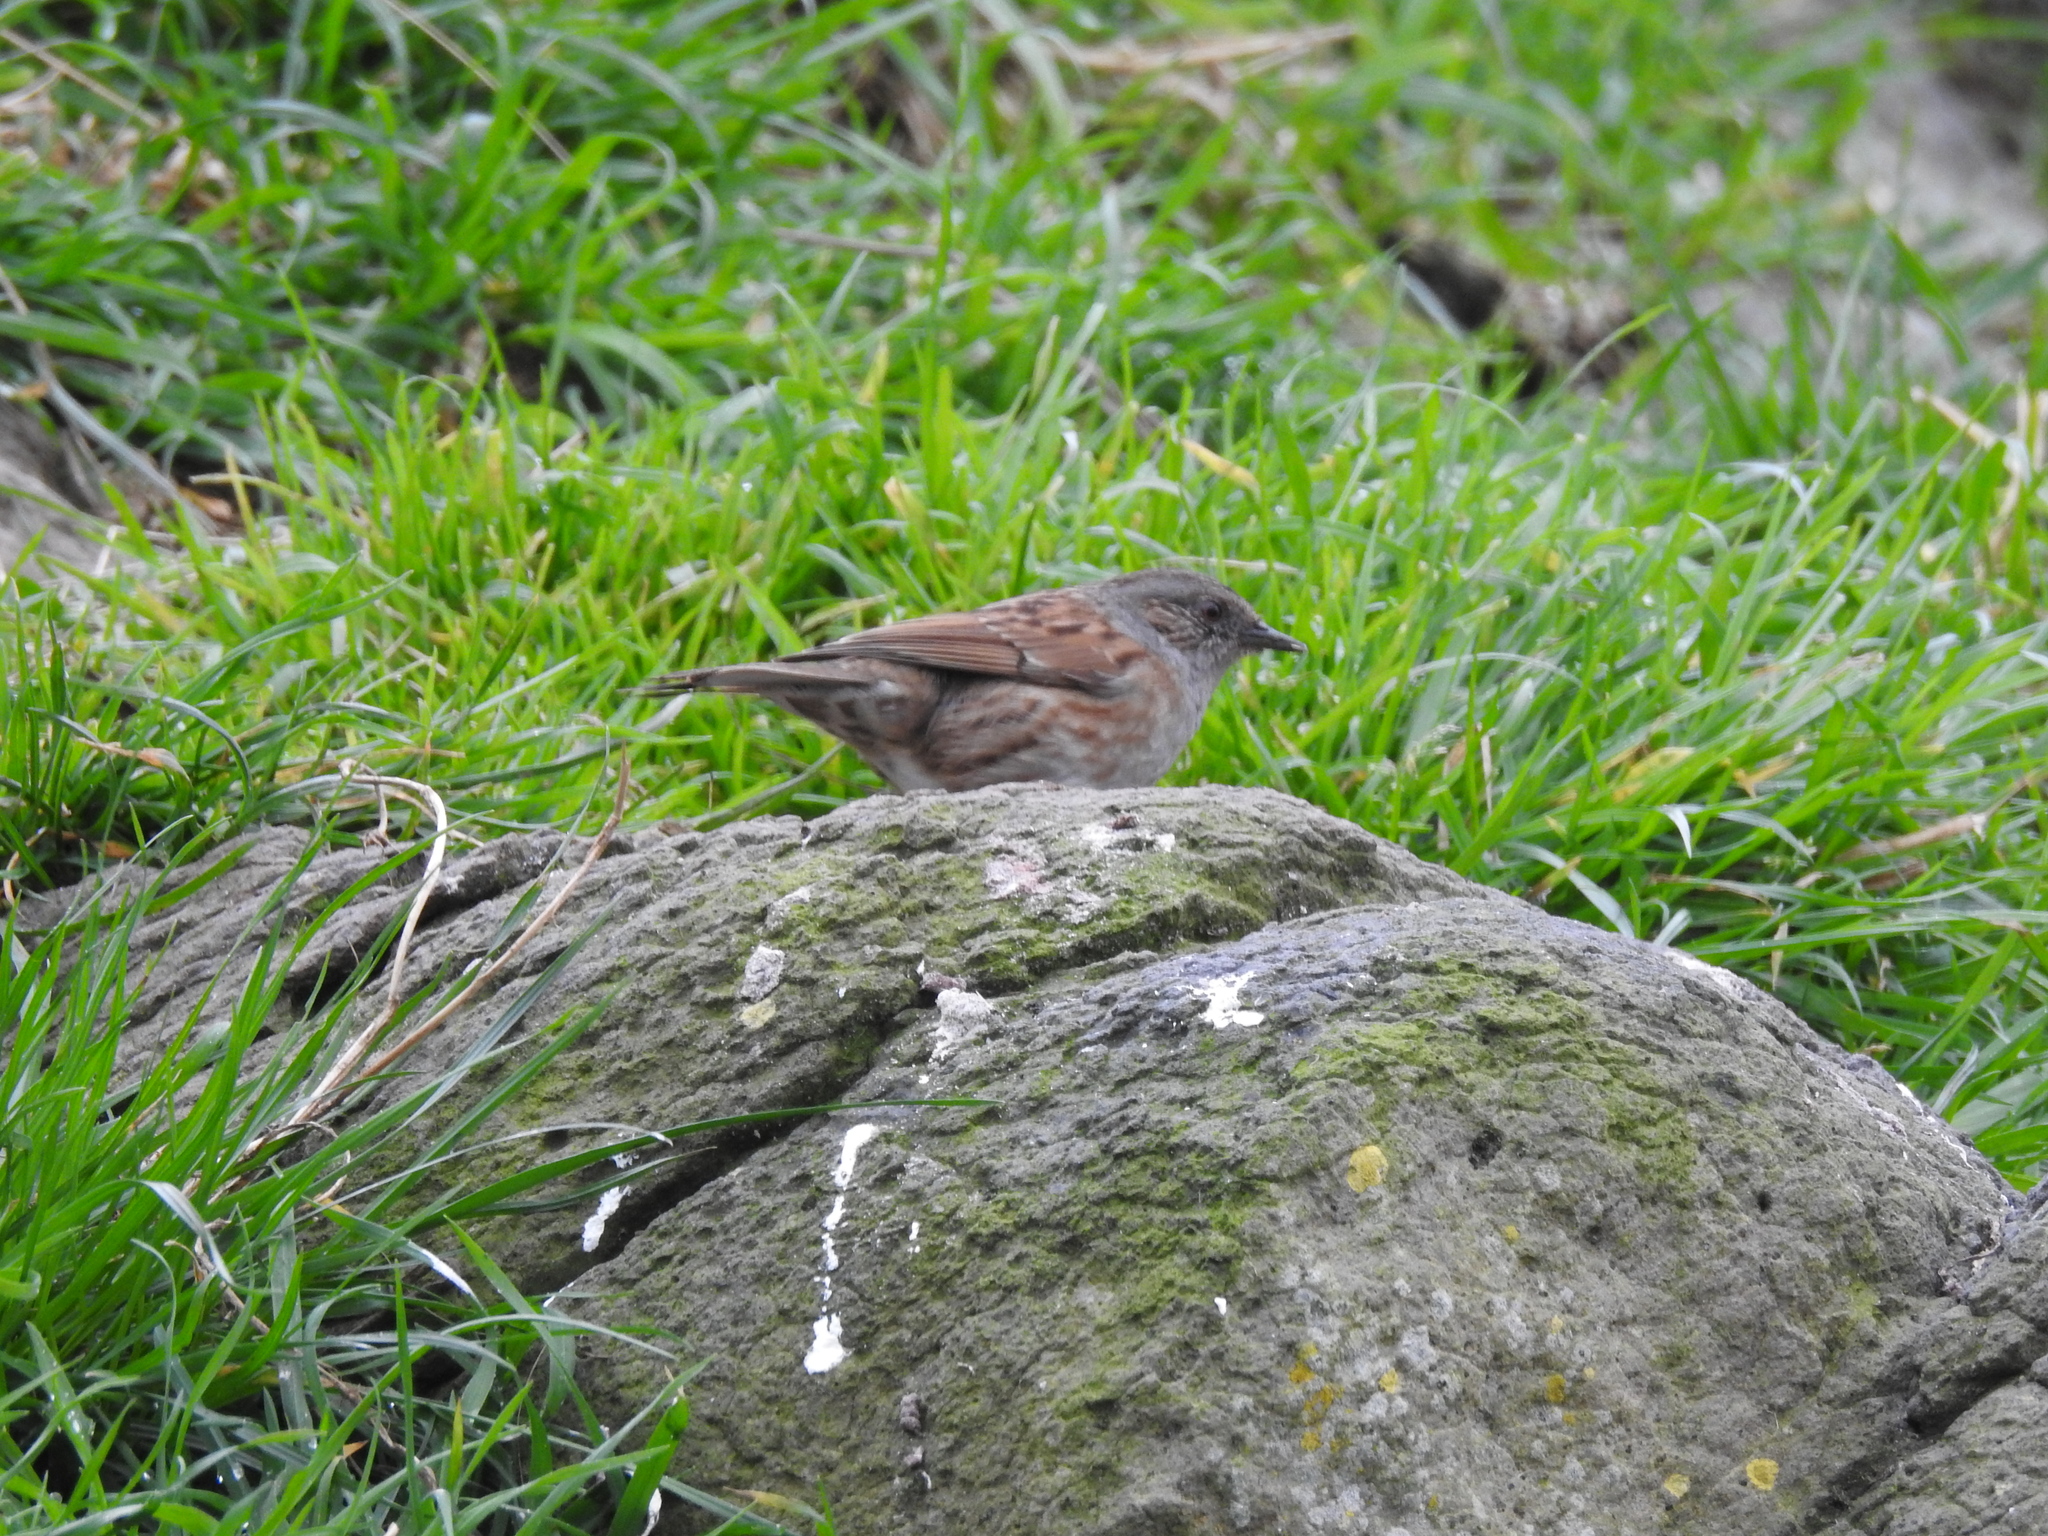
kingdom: Animalia
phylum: Chordata
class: Aves
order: Passeriformes
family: Prunellidae
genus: Prunella
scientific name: Prunella modularis
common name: Dunnock
